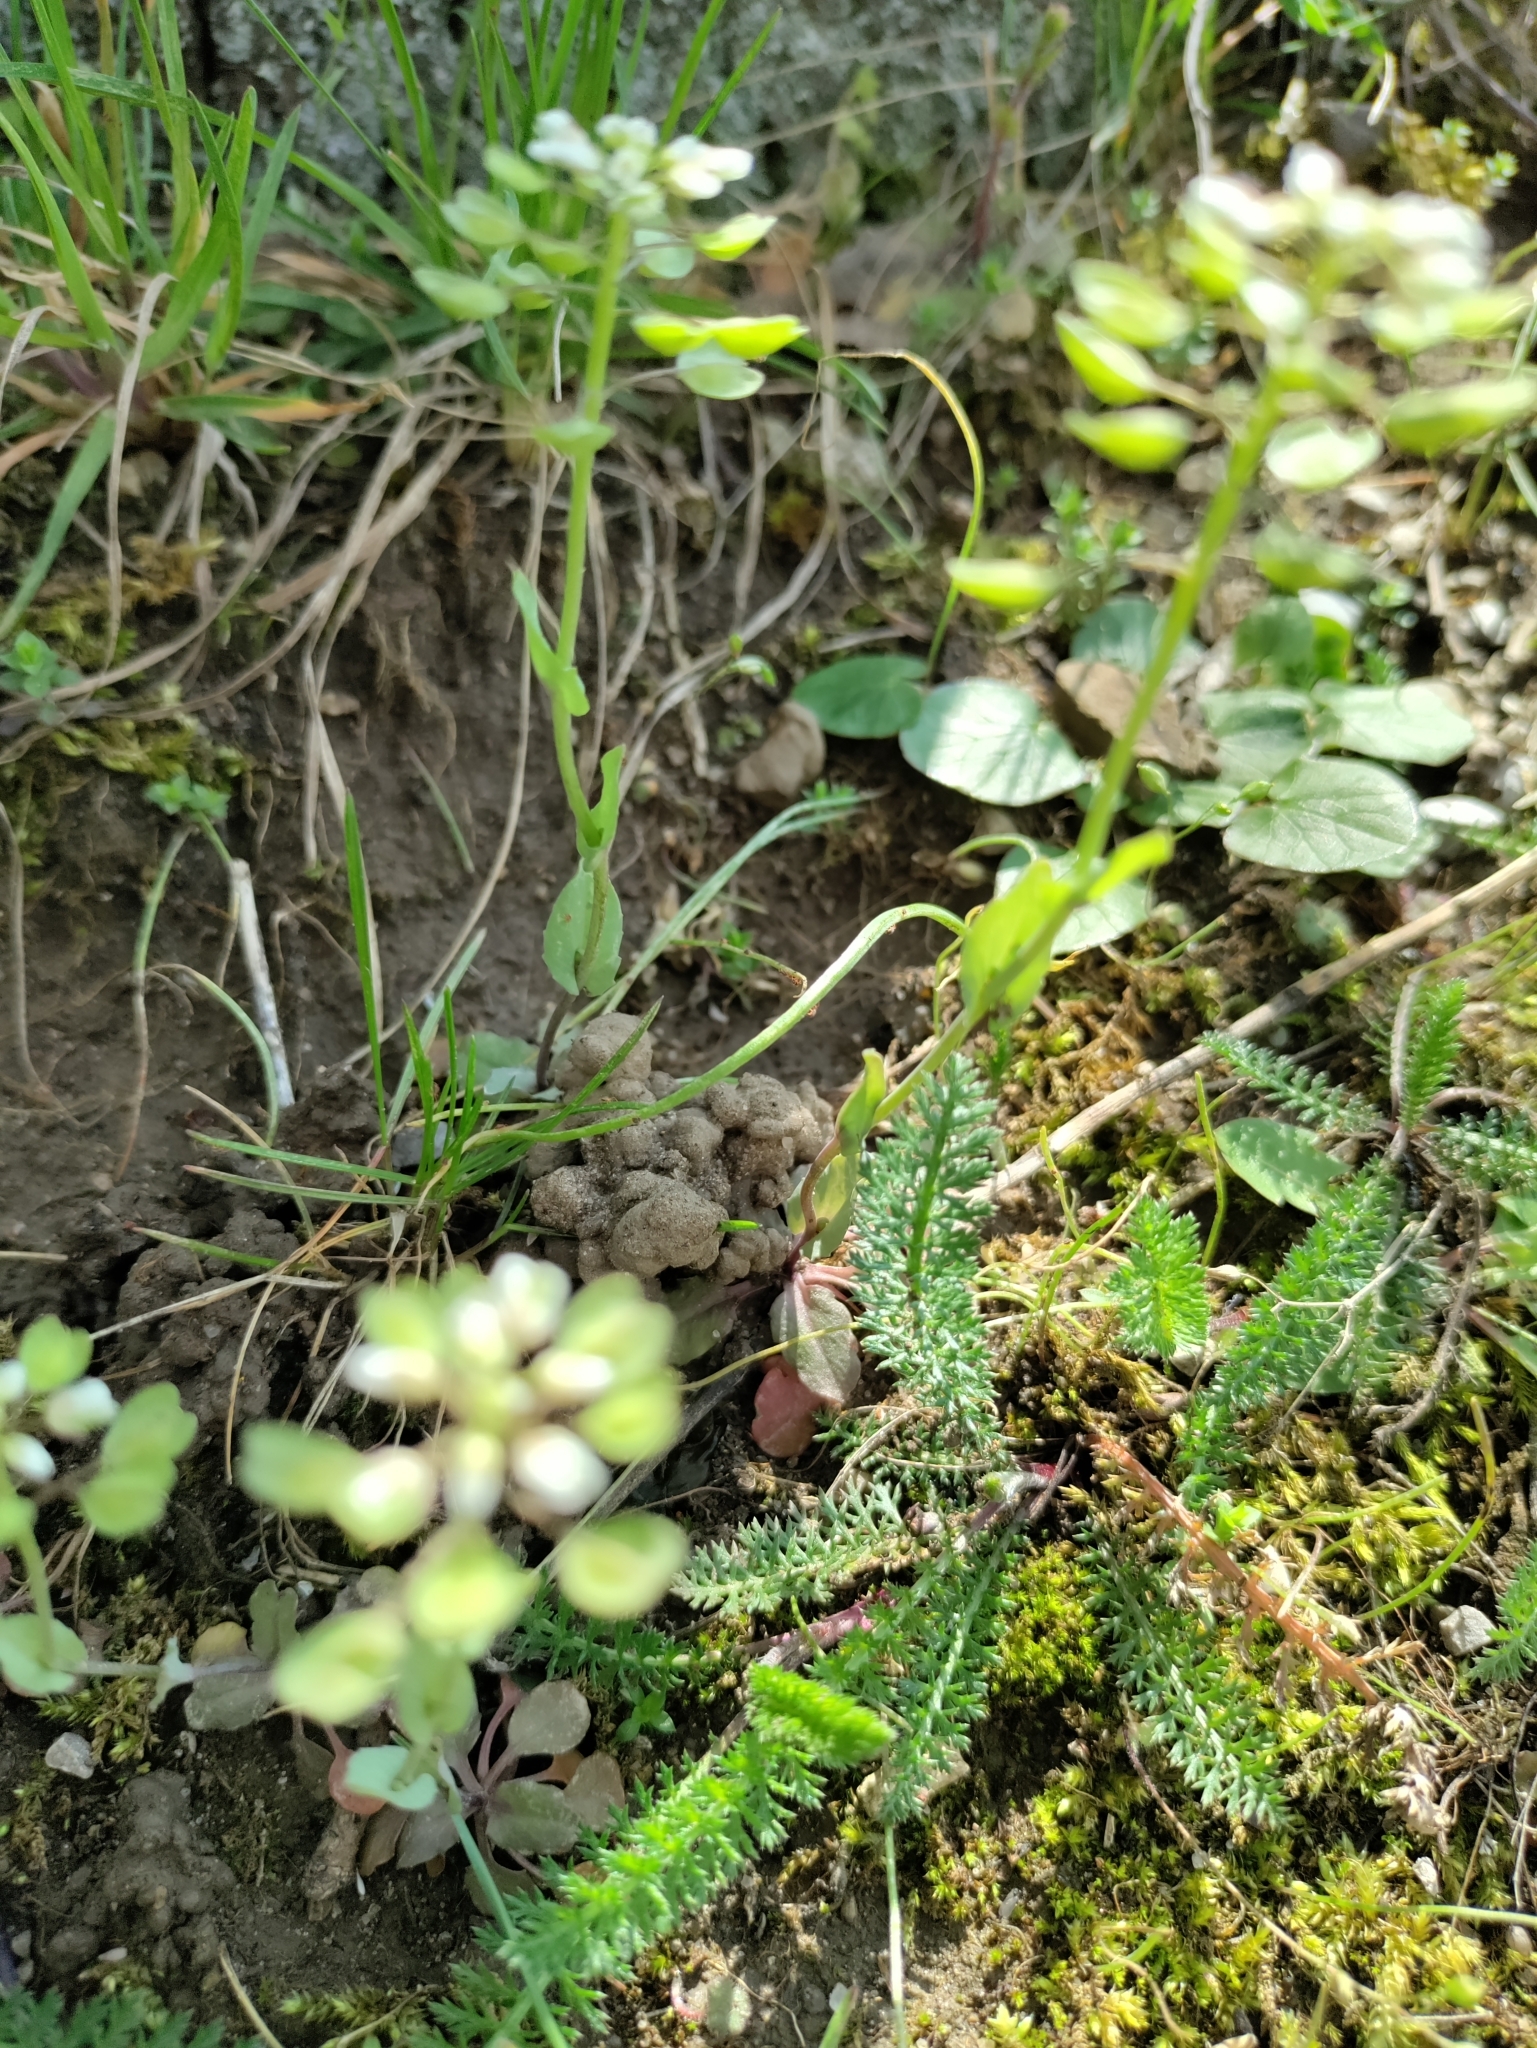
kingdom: Plantae
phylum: Tracheophyta
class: Magnoliopsida
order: Brassicales
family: Brassicaceae
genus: Noccaea
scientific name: Noccaea perfoliata
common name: Perfoliate pennycress
